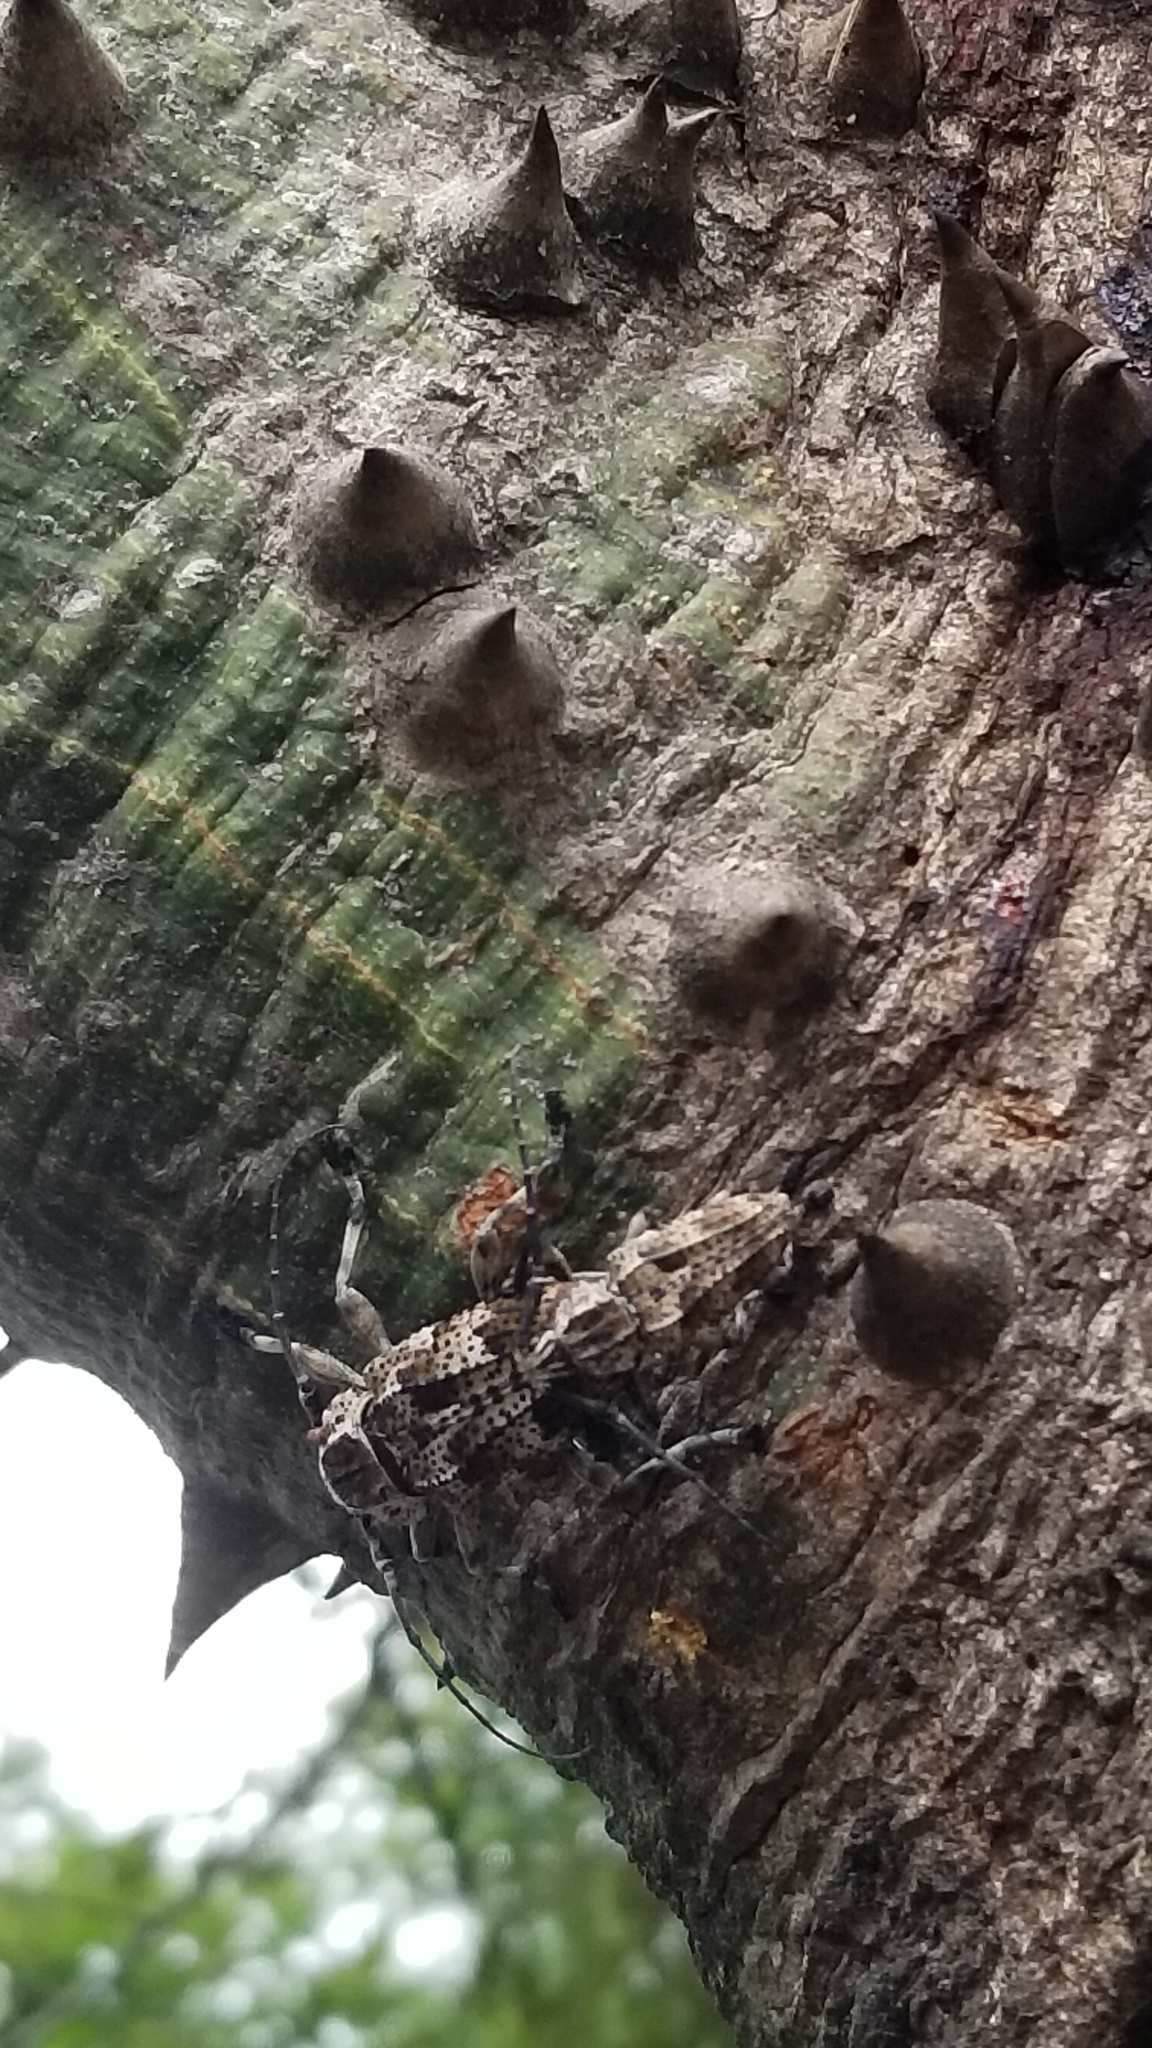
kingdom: Animalia
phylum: Arthropoda
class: Insecta
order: Coleoptera
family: Cerambycidae
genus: Steirastoma
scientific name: Steirastoma meridionale
